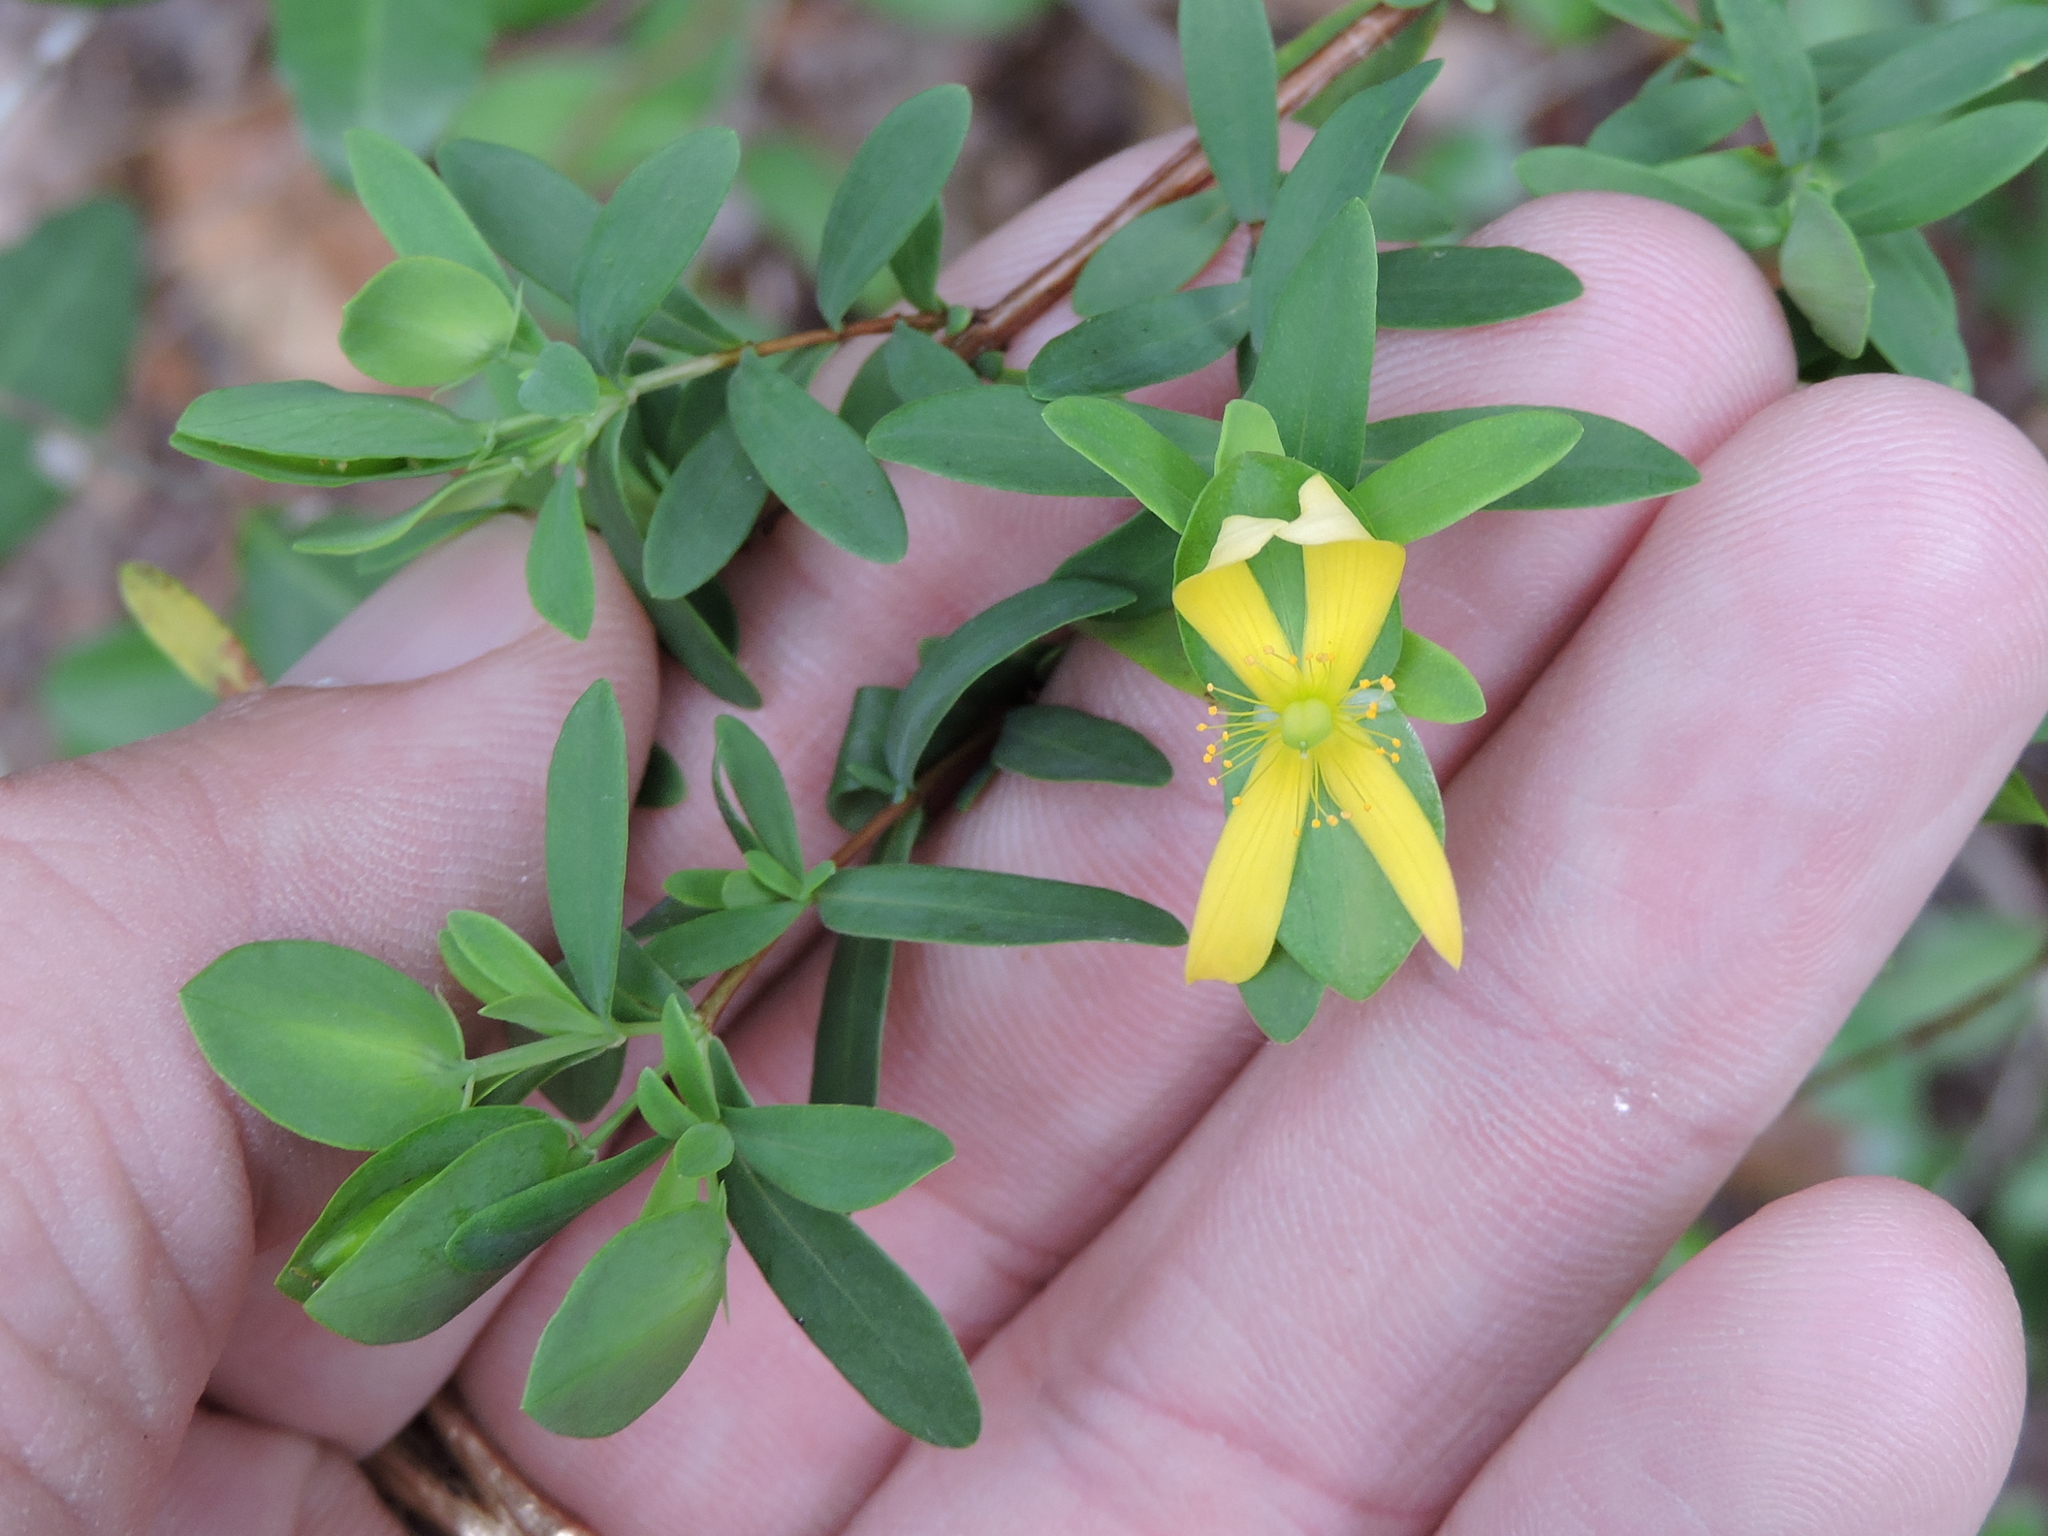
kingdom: Plantae
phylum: Tracheophyta
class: Magnoliopsida
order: Malpighiales
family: Hypericaceae
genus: Hypericum
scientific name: Hypericum hypericoides
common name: St. andrew's cross
